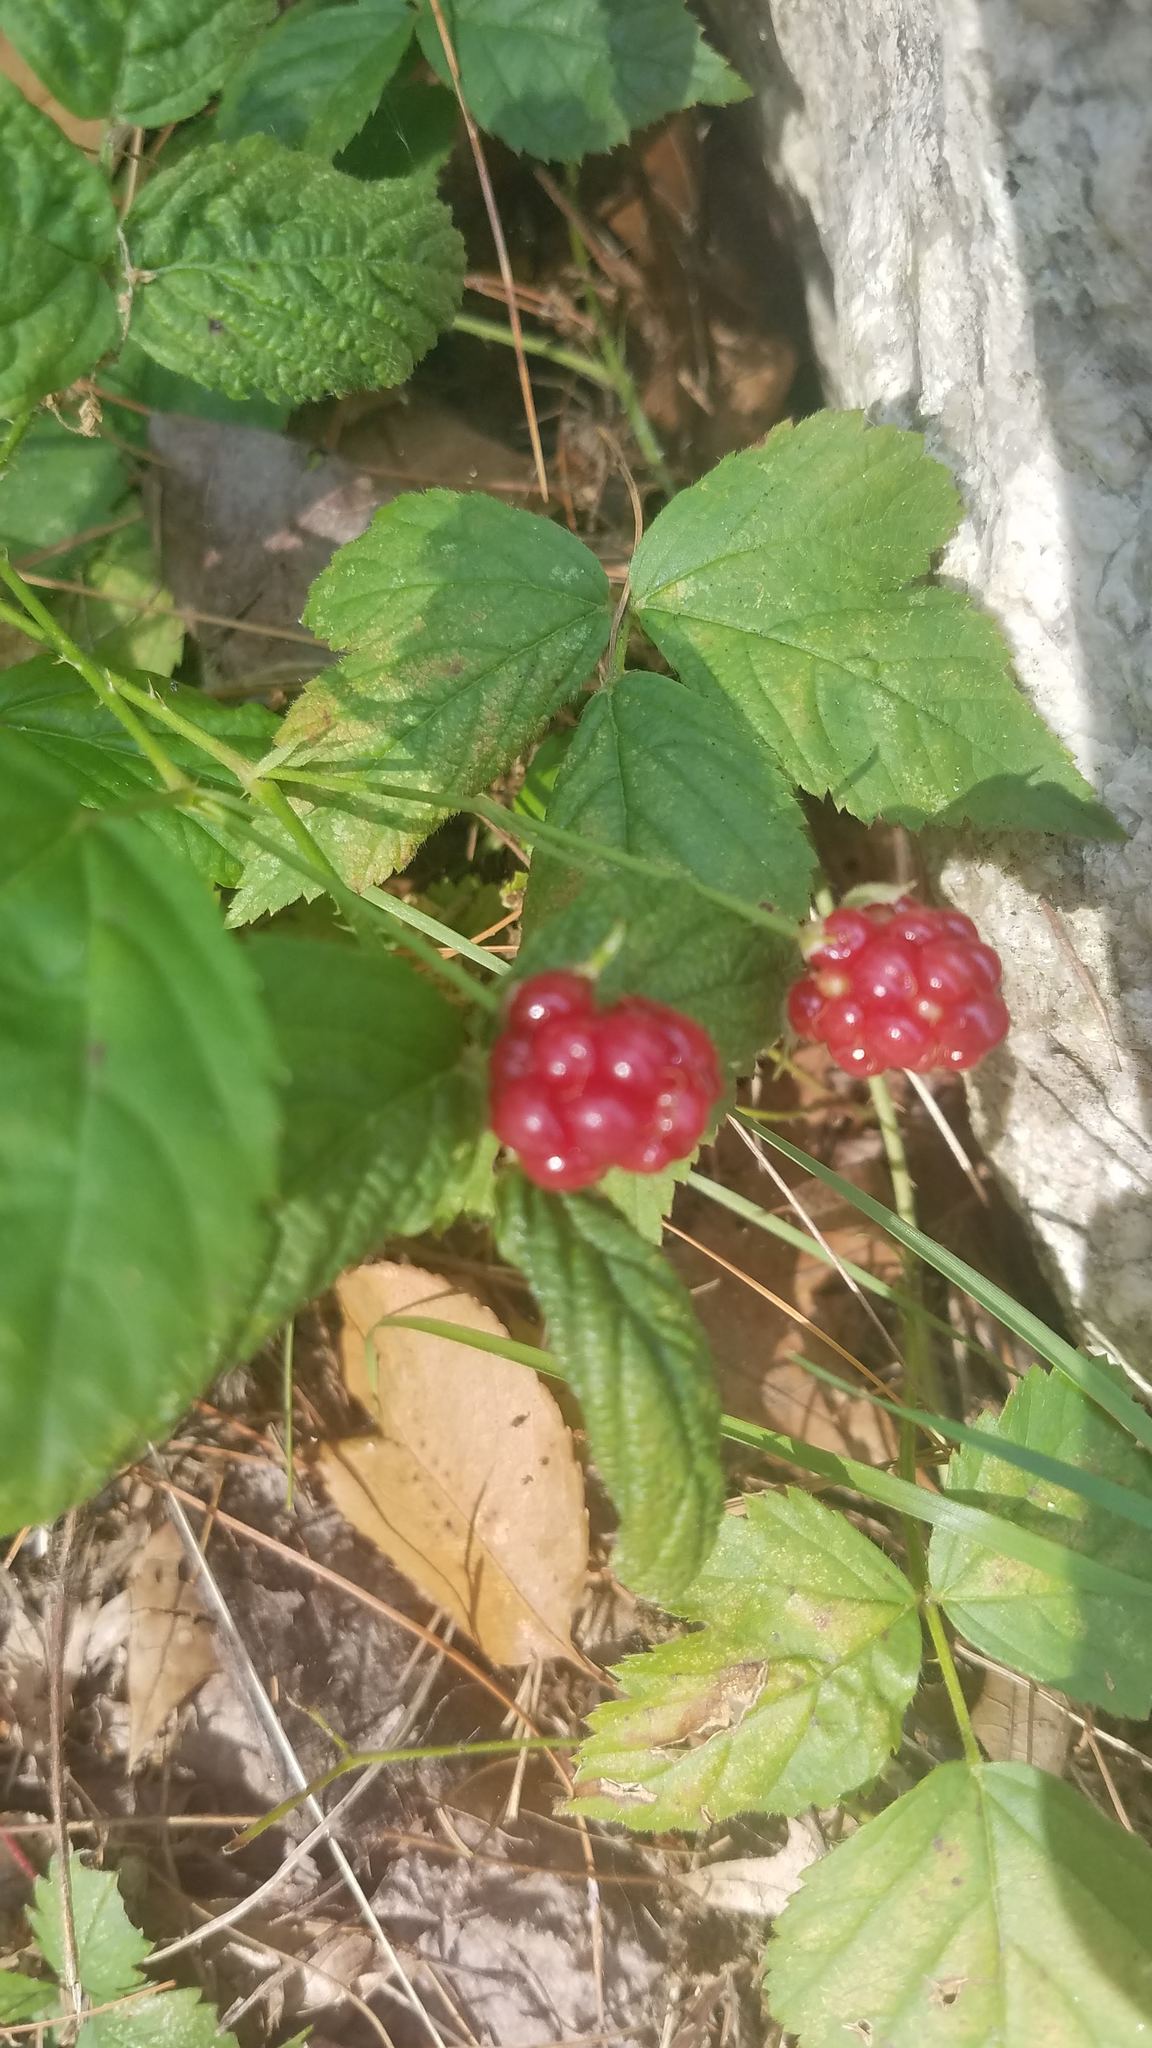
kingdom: Plantae
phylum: Tracheophyta
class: Magnoliopsida
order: Rosales
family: Rosaceae
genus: Rubus
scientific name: Rubus flagellaris
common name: American dewberry
